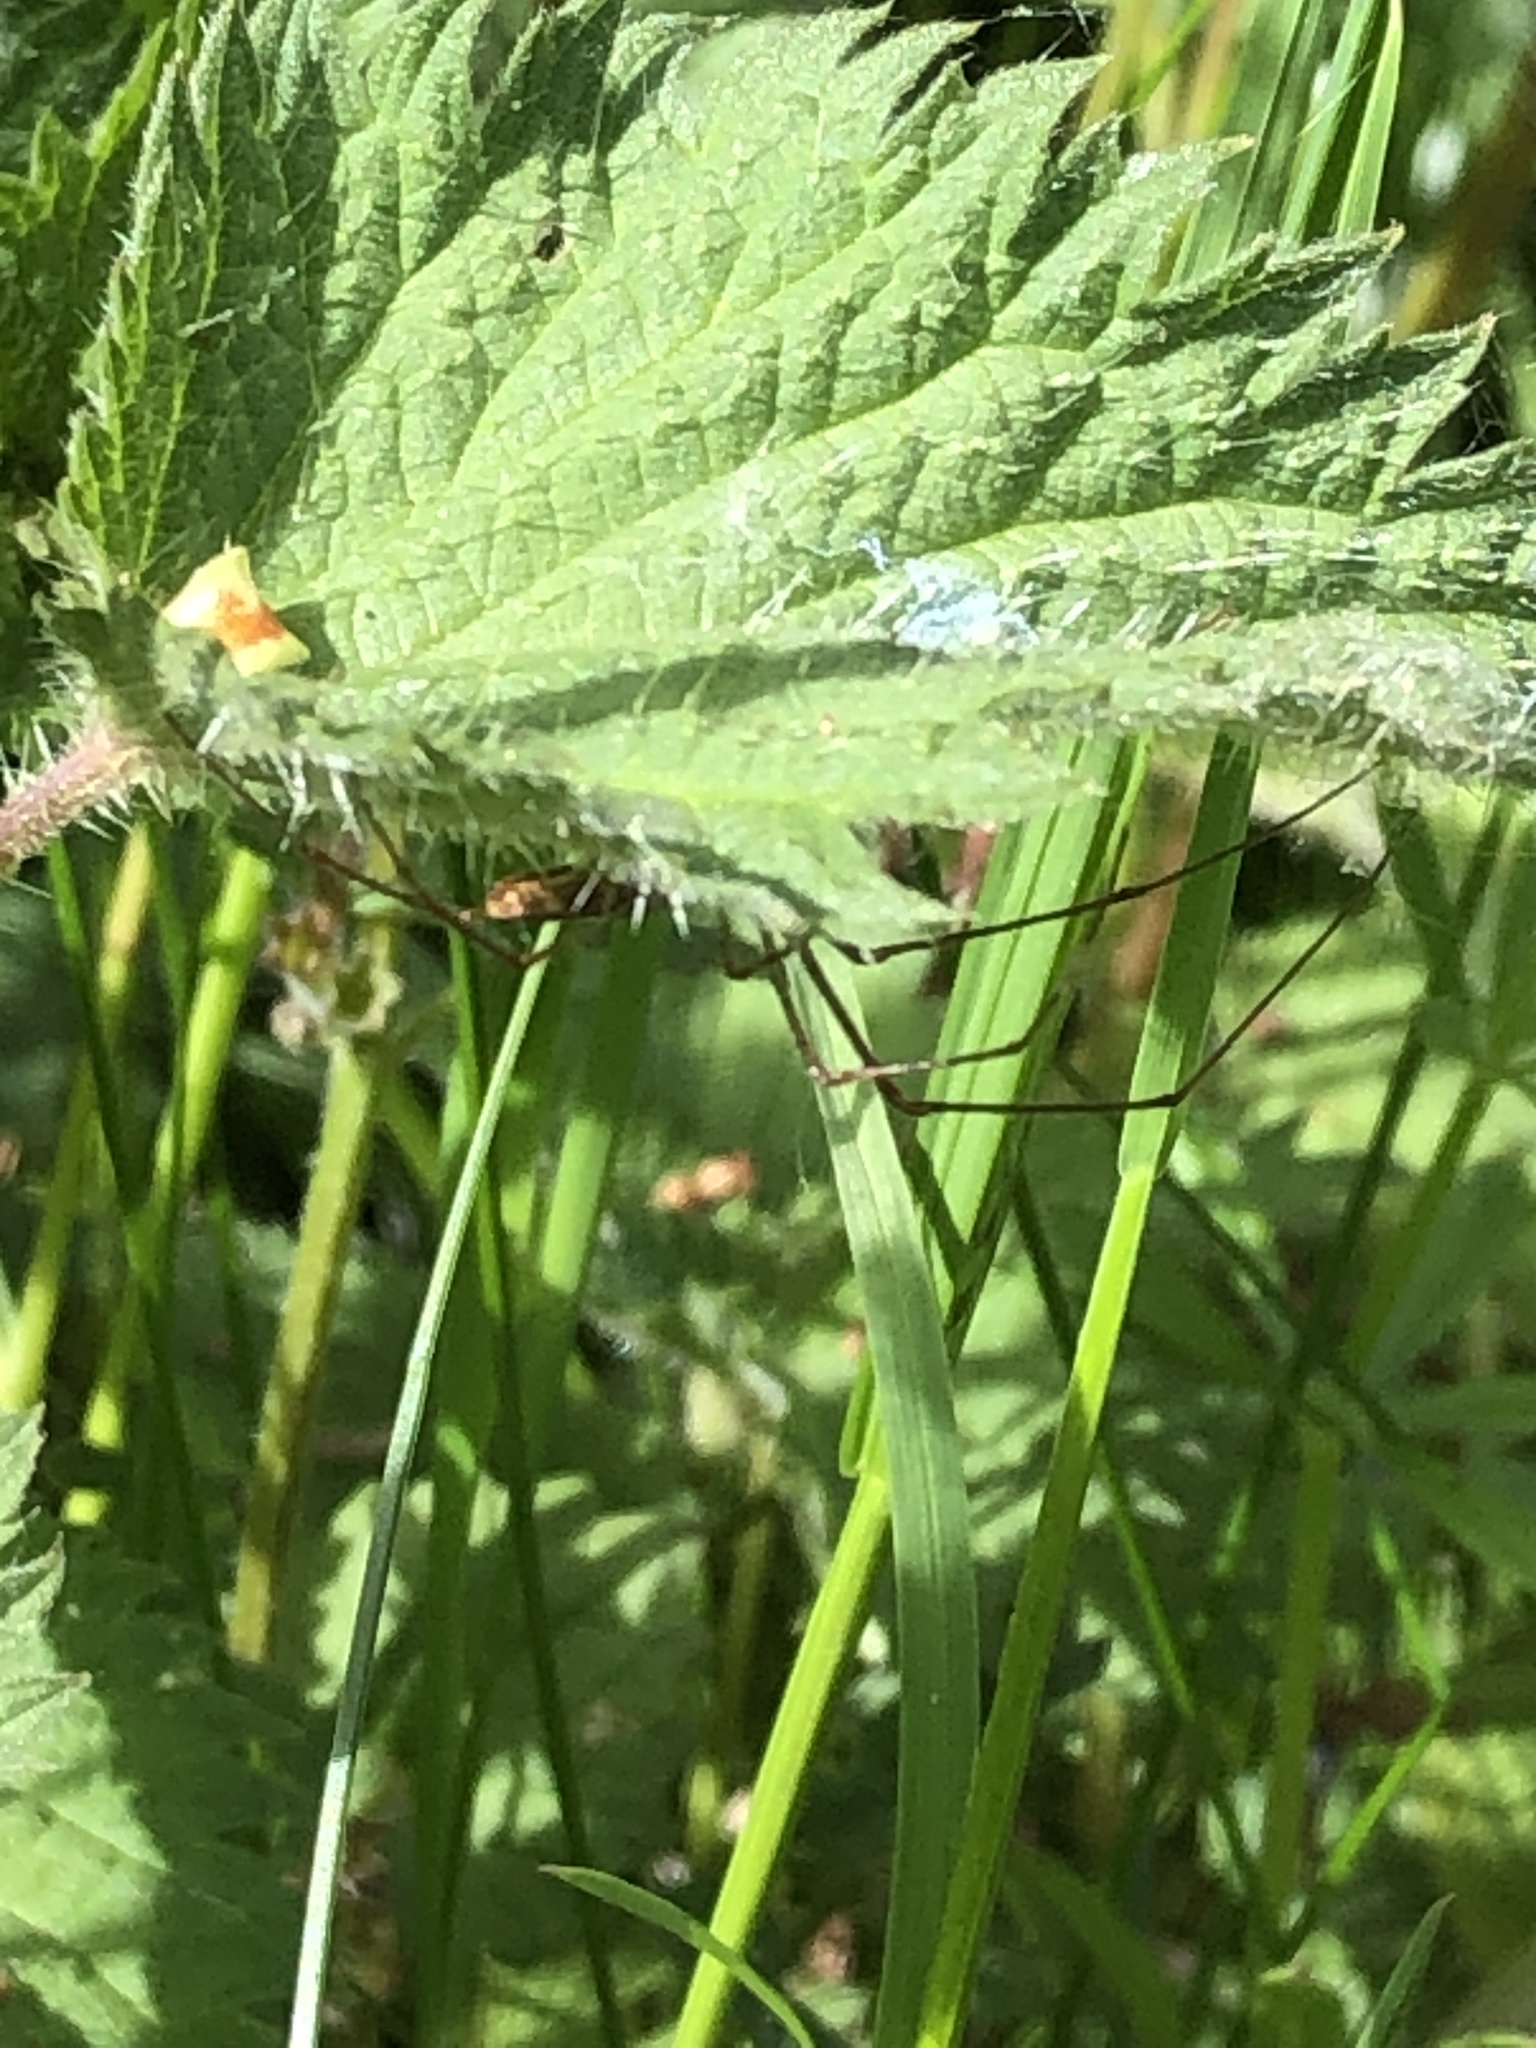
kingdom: Animalia
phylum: Arthropoda
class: Arachnida
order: Araneae
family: Tetragnathidae
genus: Tetragnatha
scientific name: Tetragnatha
